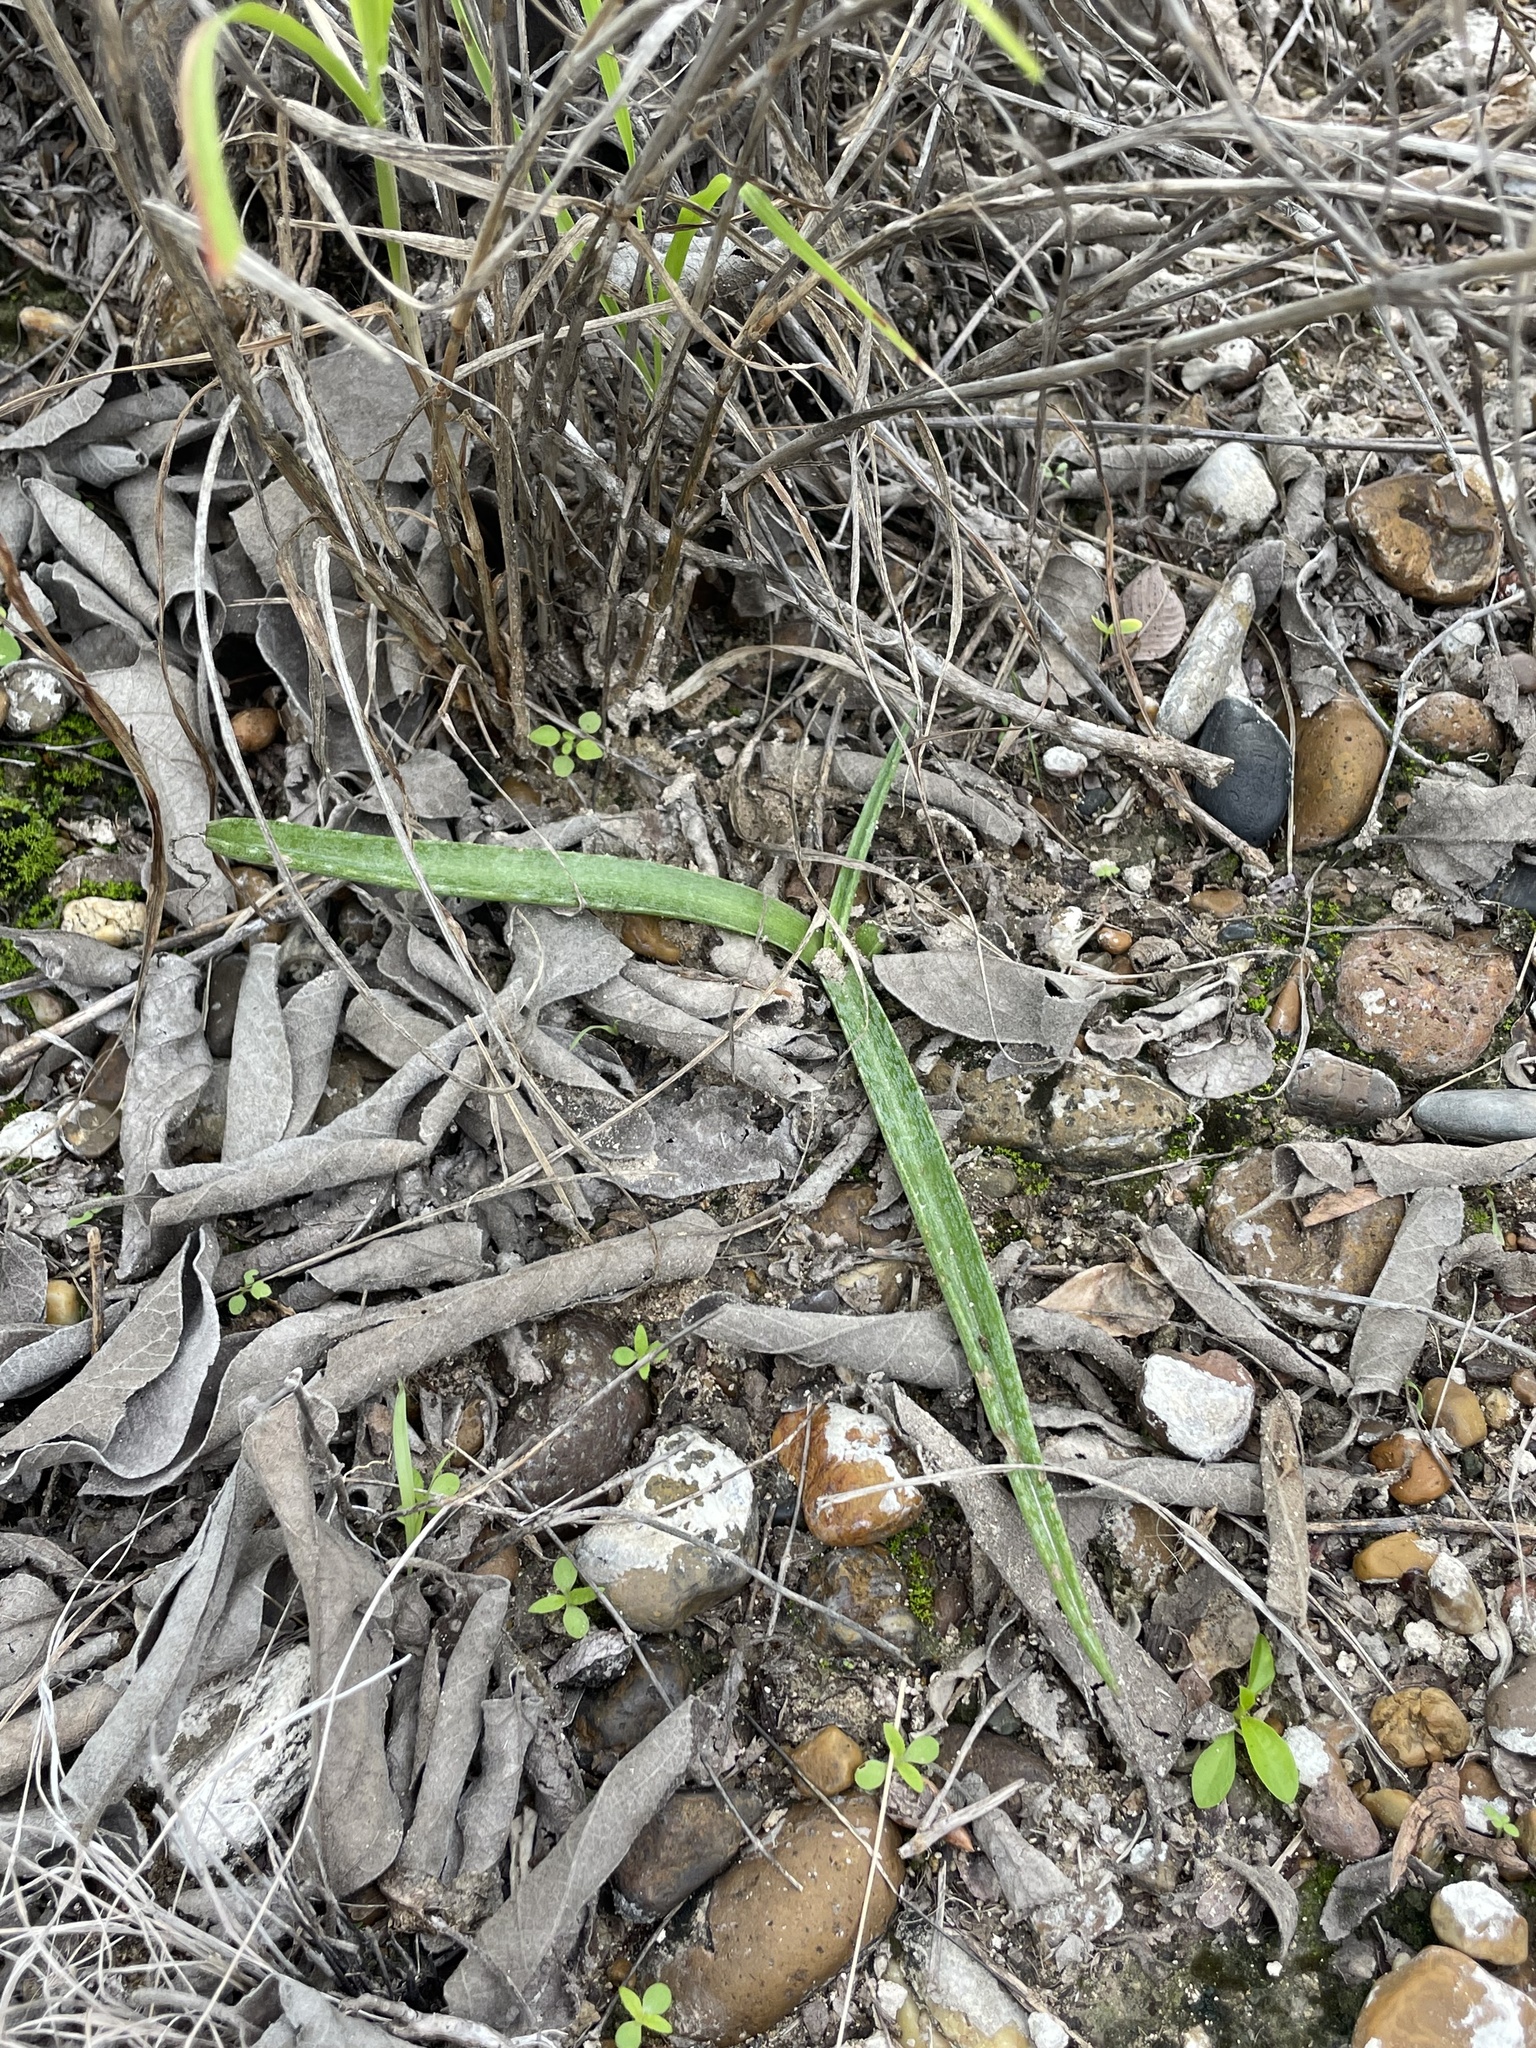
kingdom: Plantae
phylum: Tracheophyta
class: Liliopsida
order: Asparagales
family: Asparagaceae
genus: Agave
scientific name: Agave longiflora
